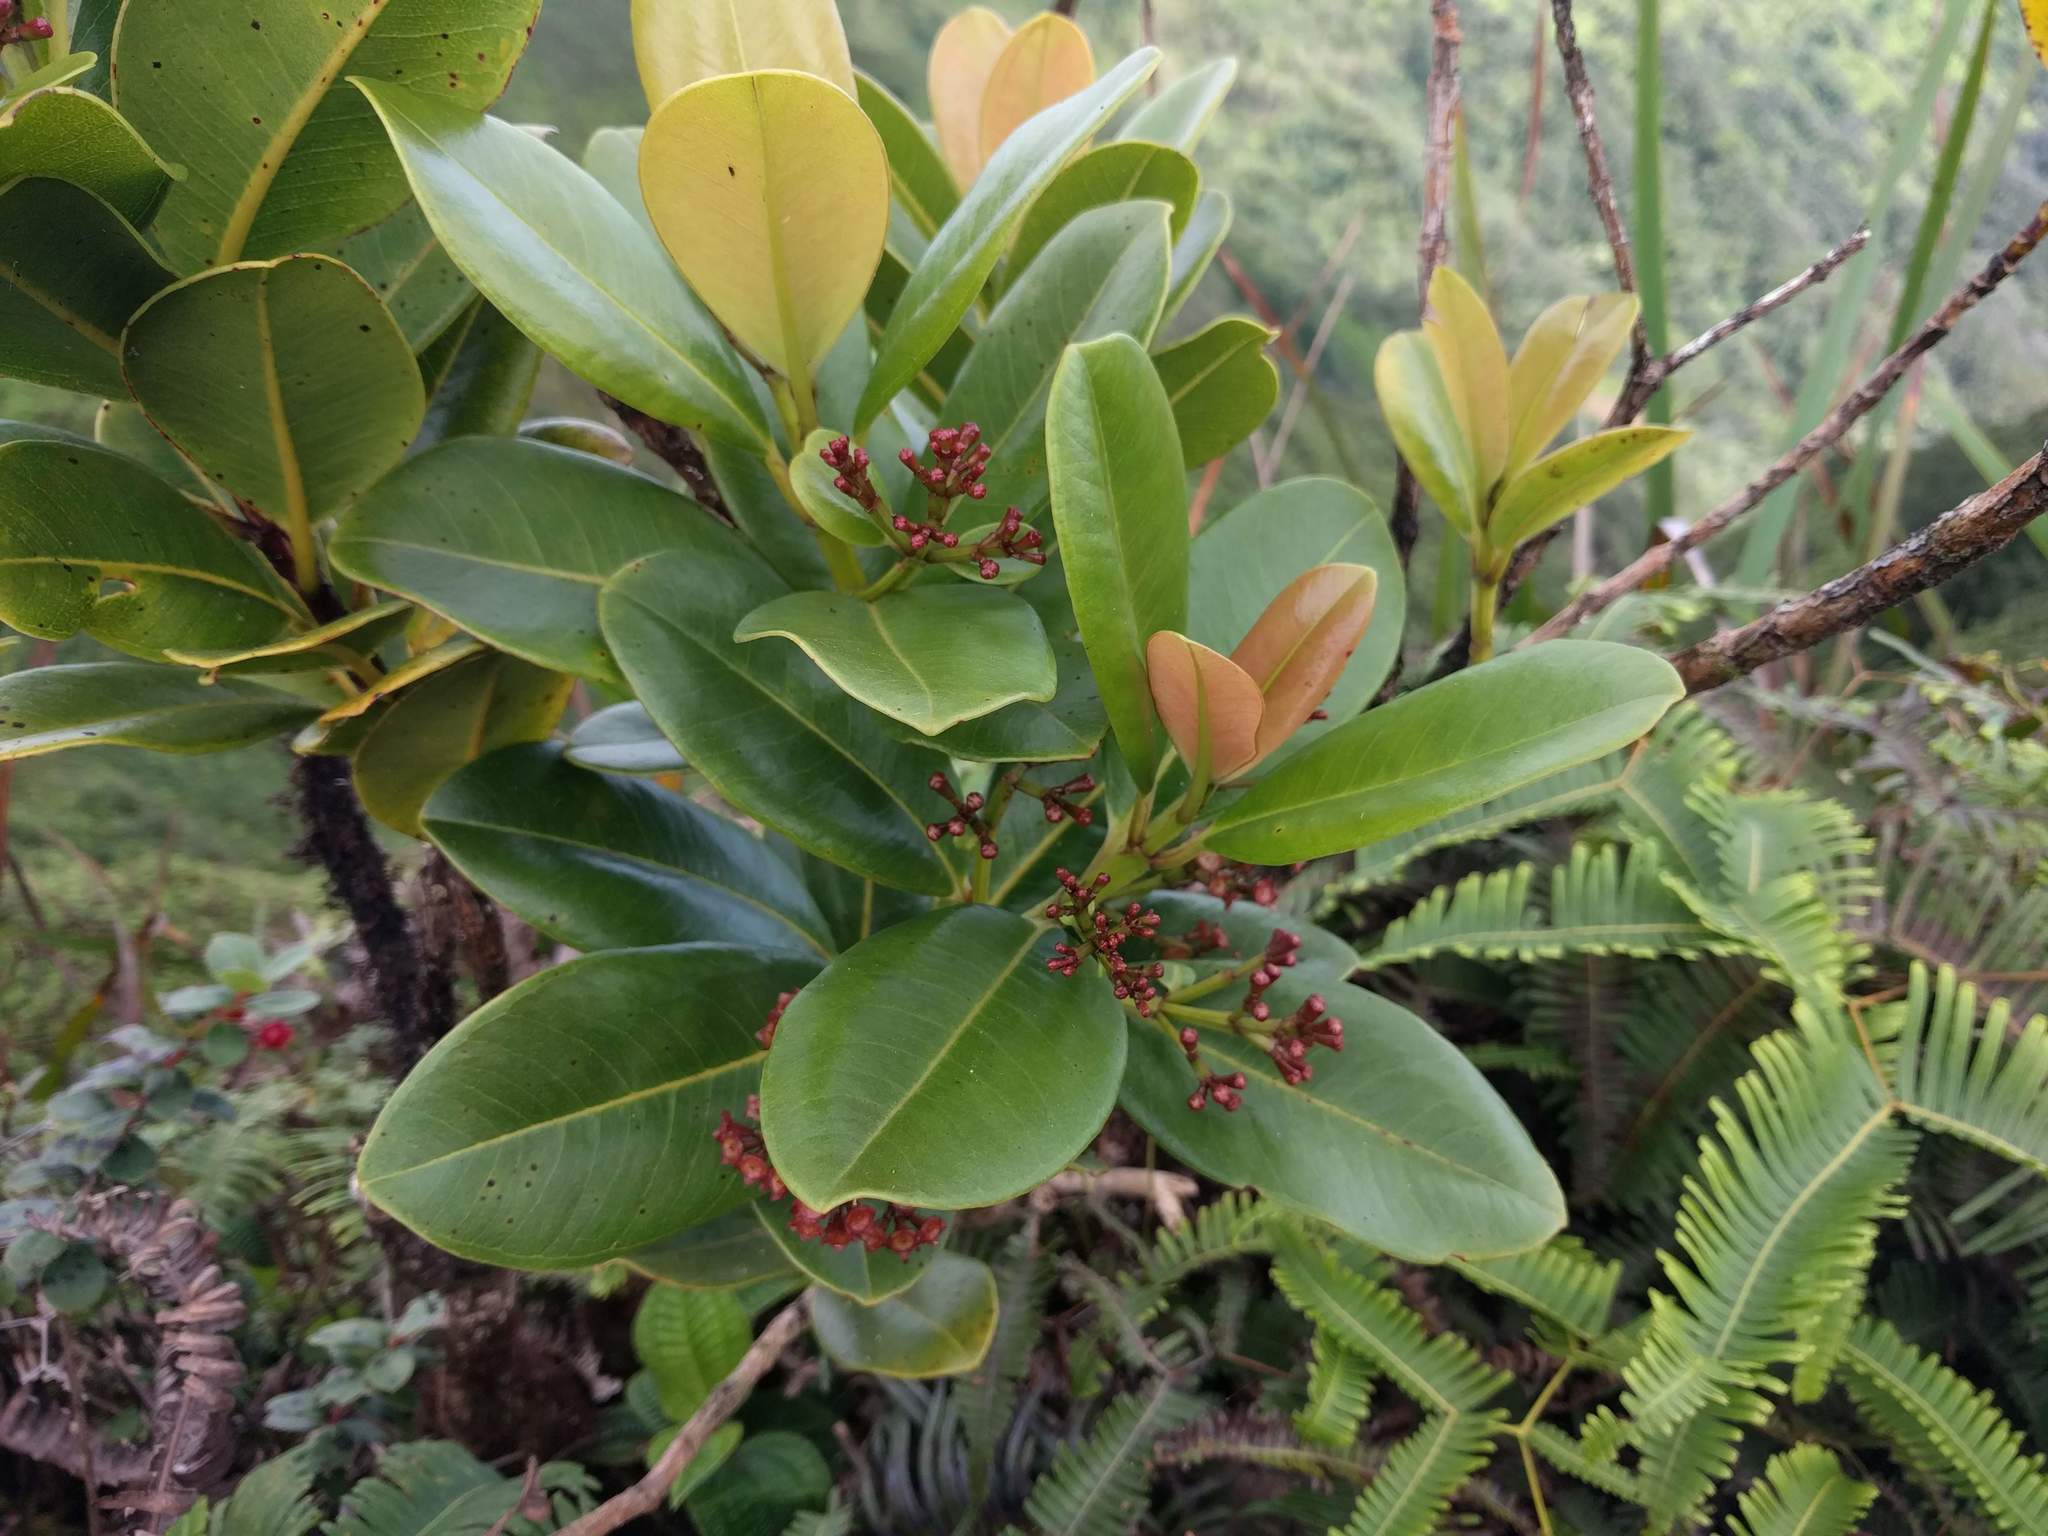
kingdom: Plantae
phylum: Tracheophyta
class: Magnoliopsida
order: Myrtales
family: Myrtaceae
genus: Syzygium
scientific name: Syzygium sandwicense
